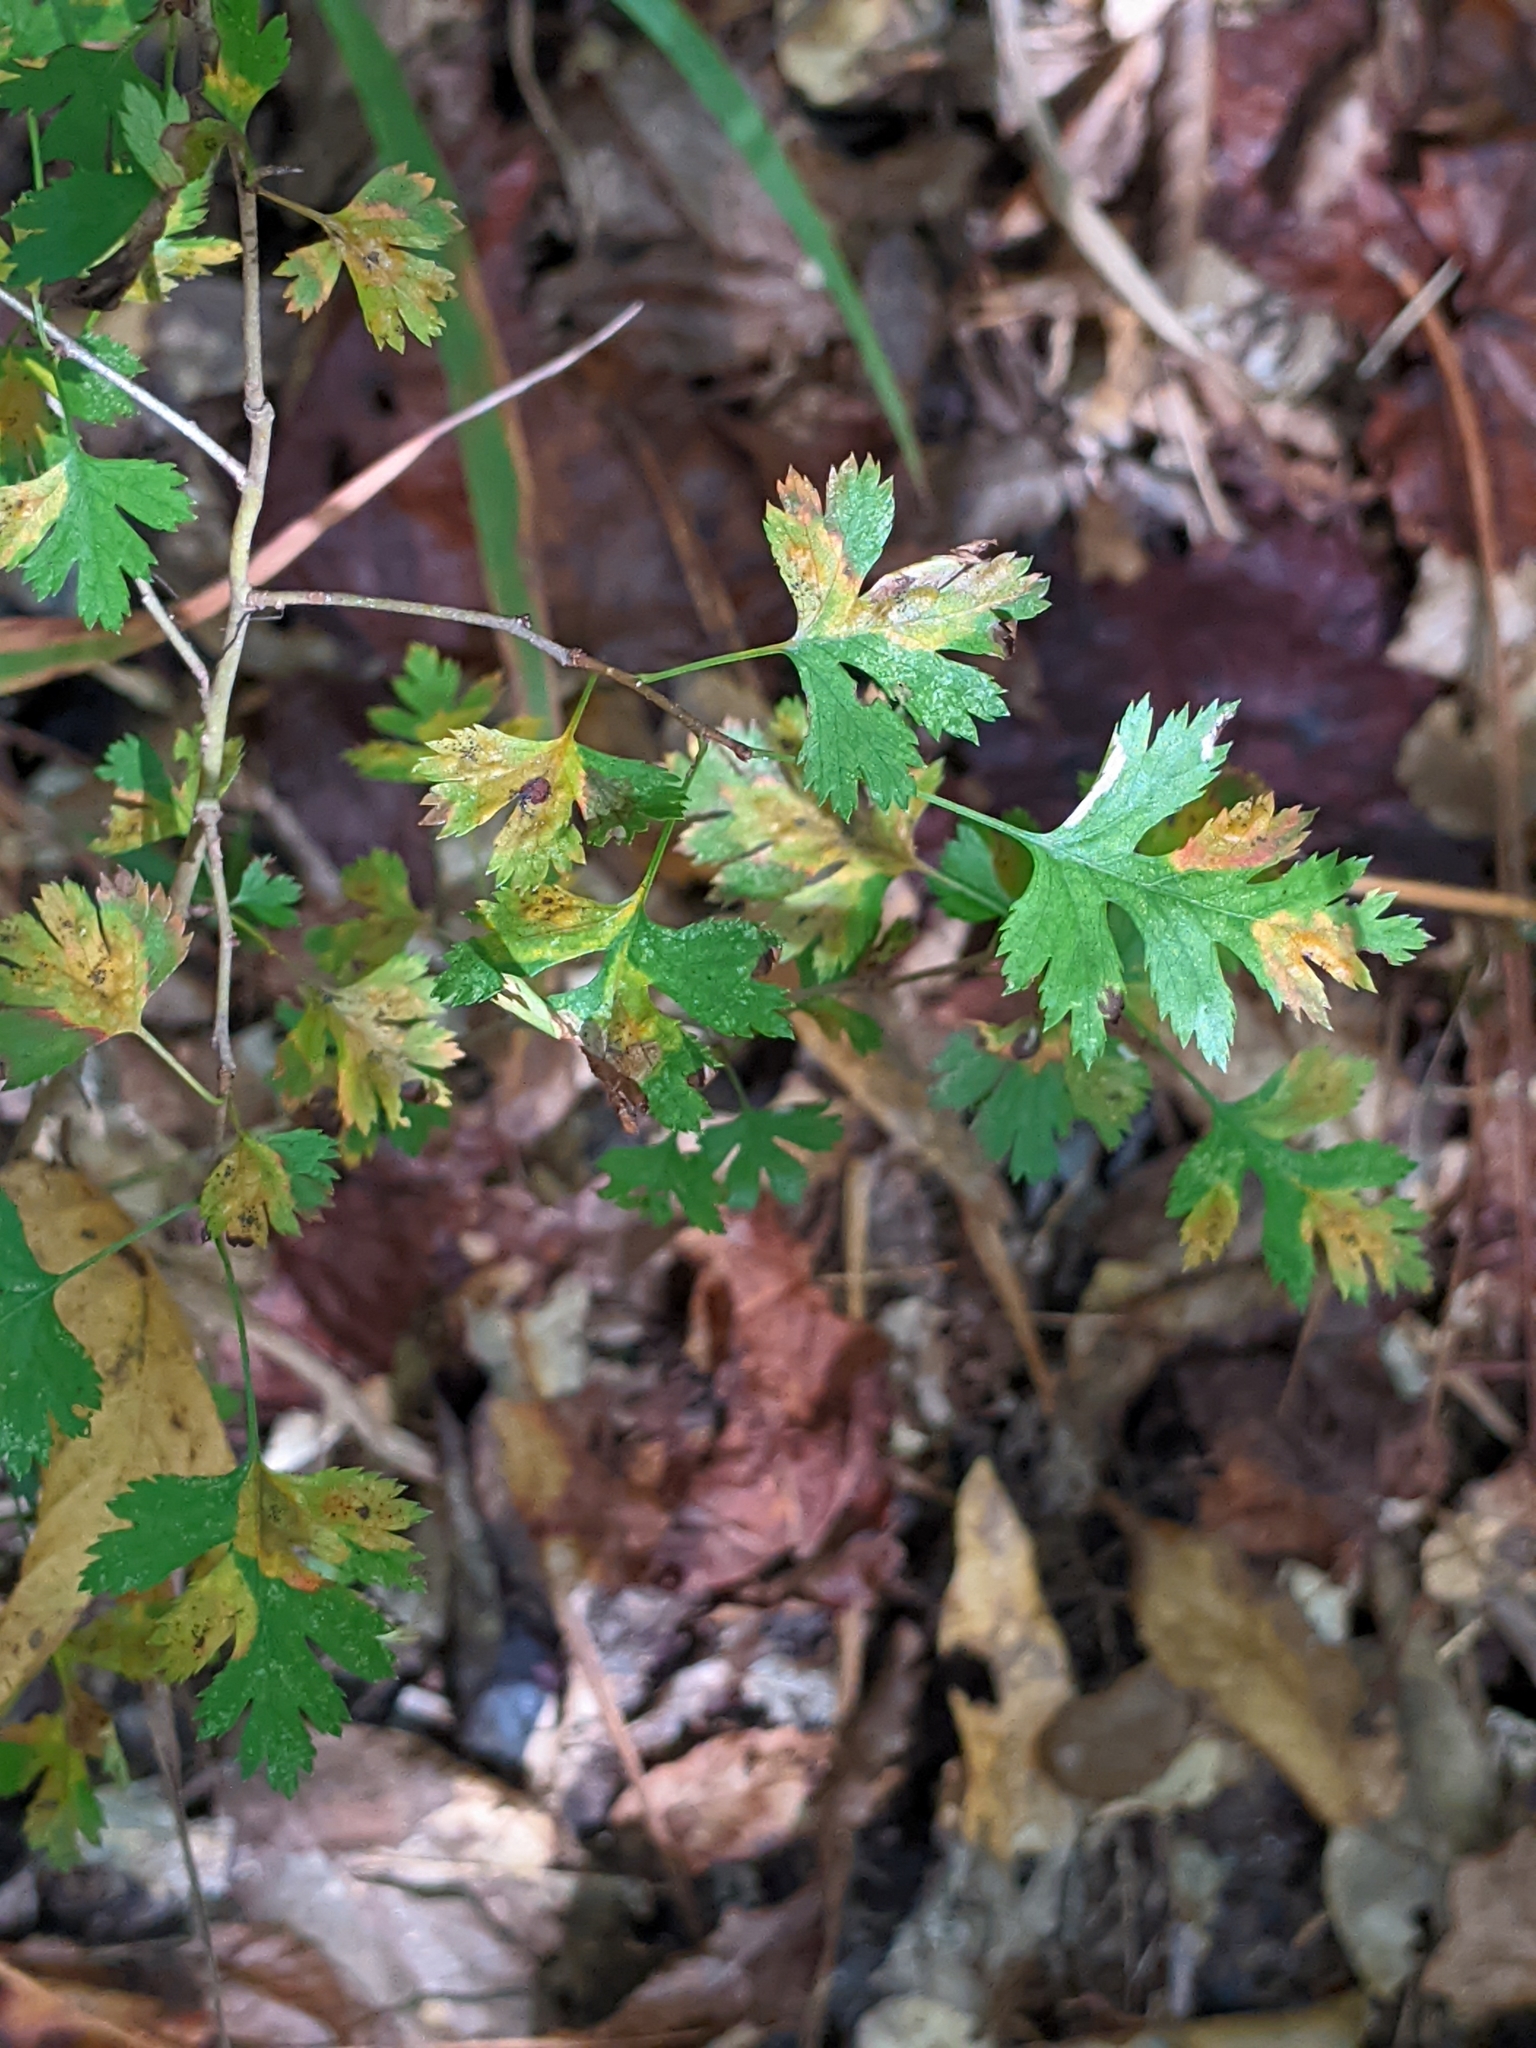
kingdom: Plantae
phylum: Tracheophyta
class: Magnoliopsida
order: Rosales
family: Rosaceae
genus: Crataegus
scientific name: Crataegus marshallii
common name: Parsley-hawthorn
